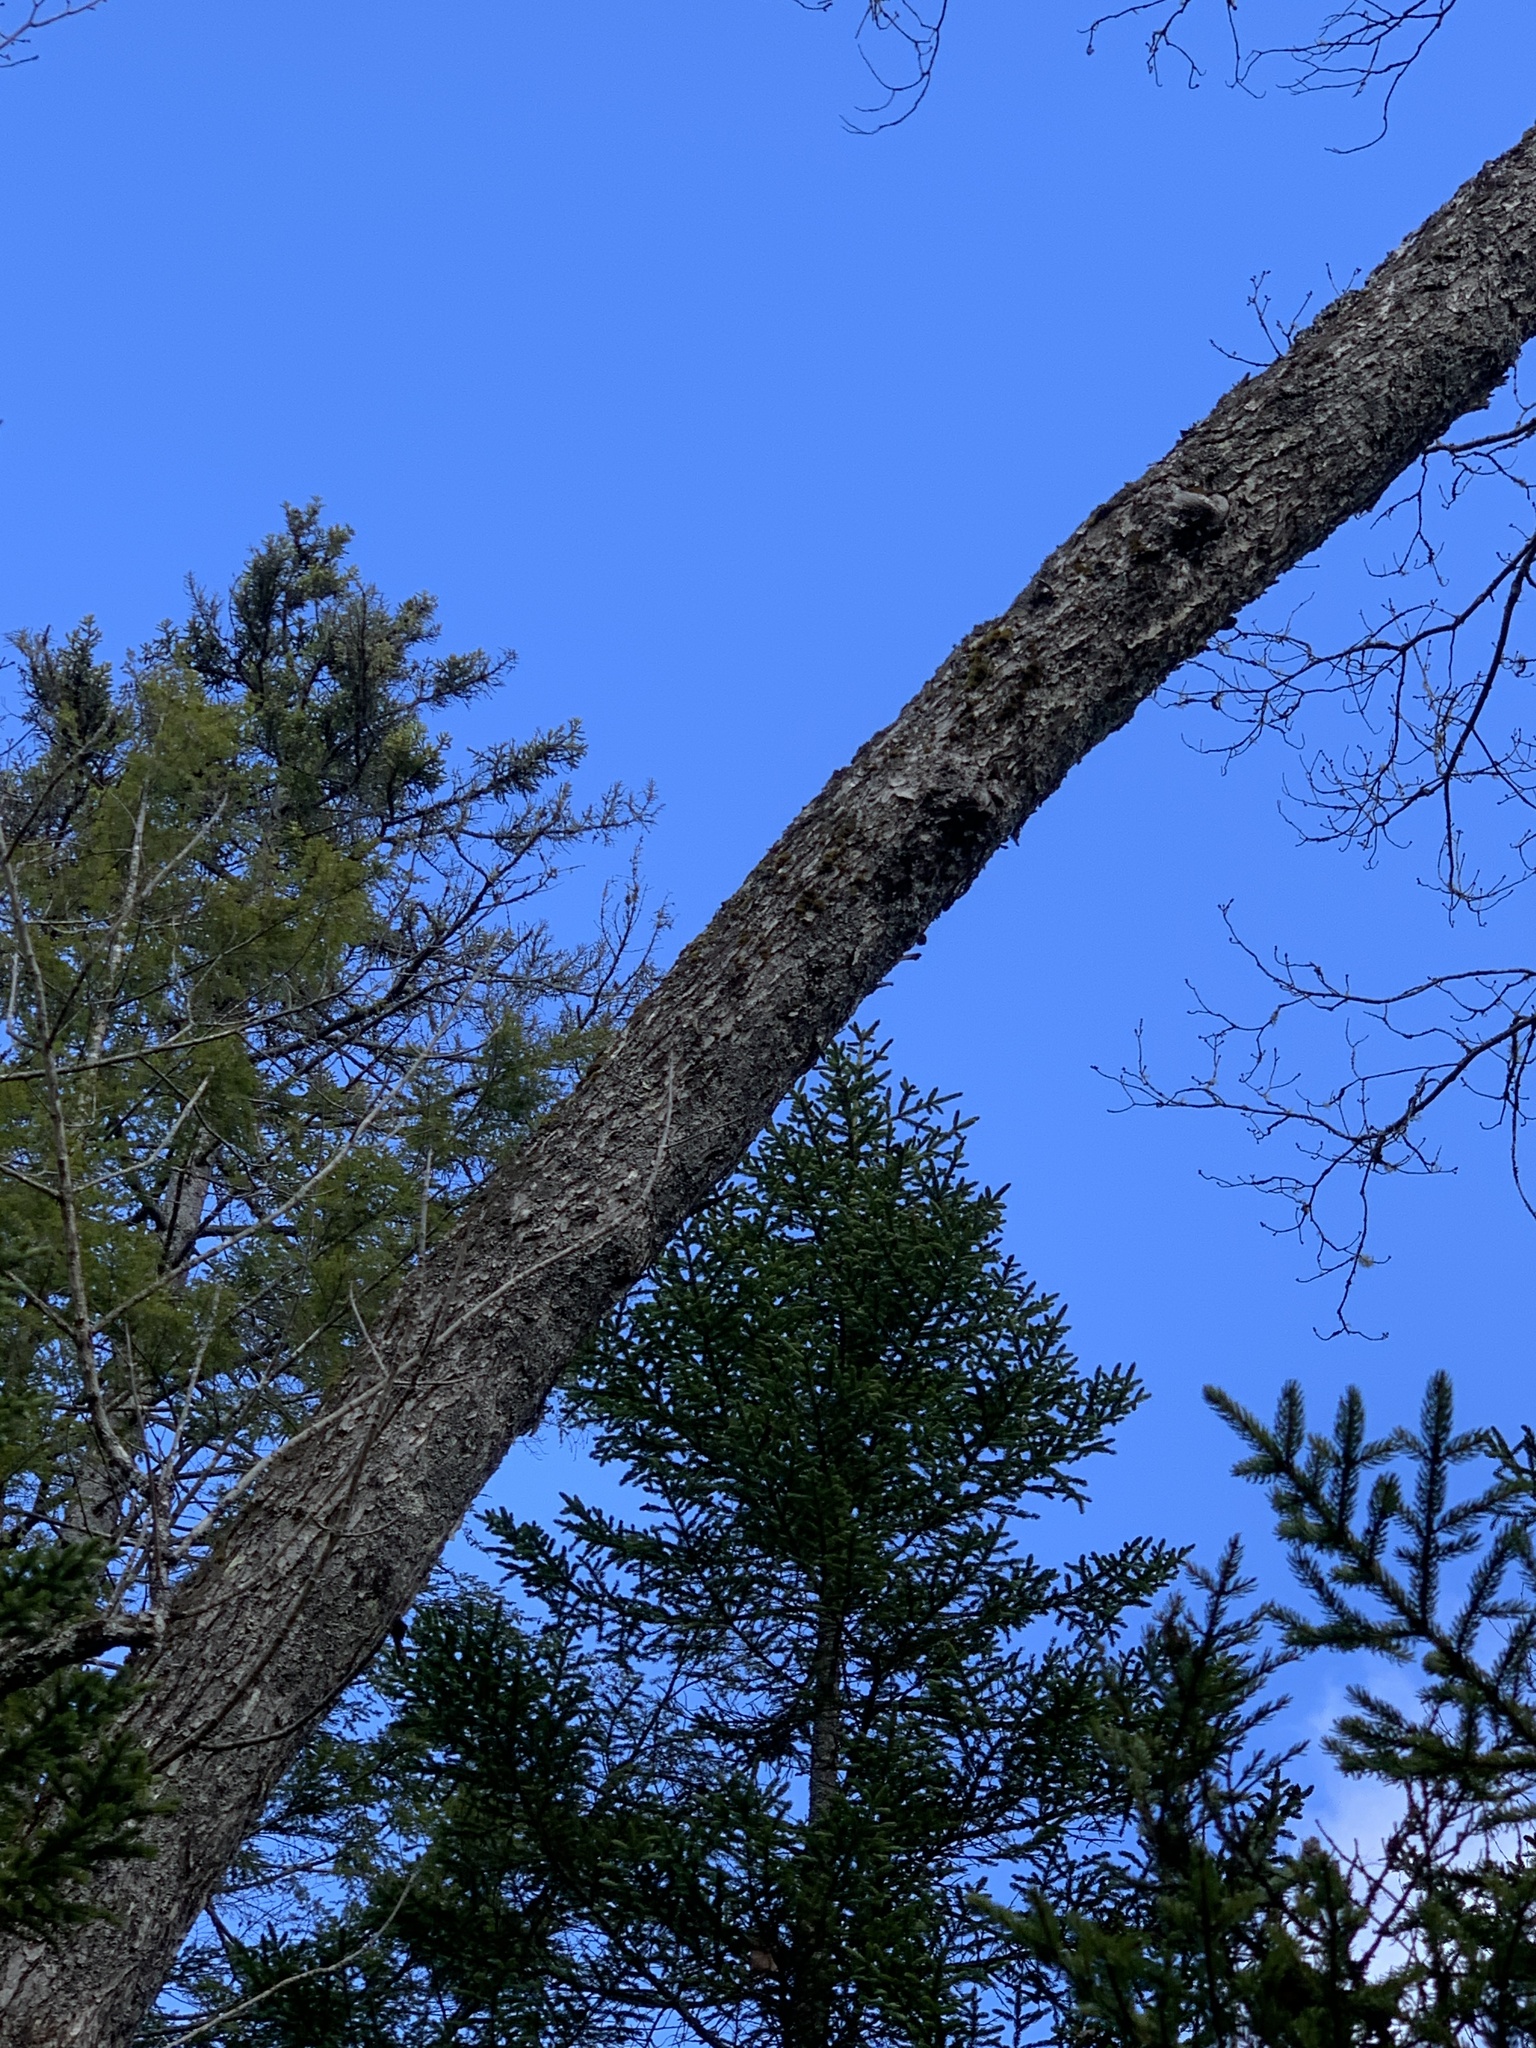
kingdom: Plantae
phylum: Tracheophyta
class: Magnoliopsida
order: Fagales
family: Betulaceae
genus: Betula
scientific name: Betula alleghaniensis
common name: Yellow birch
